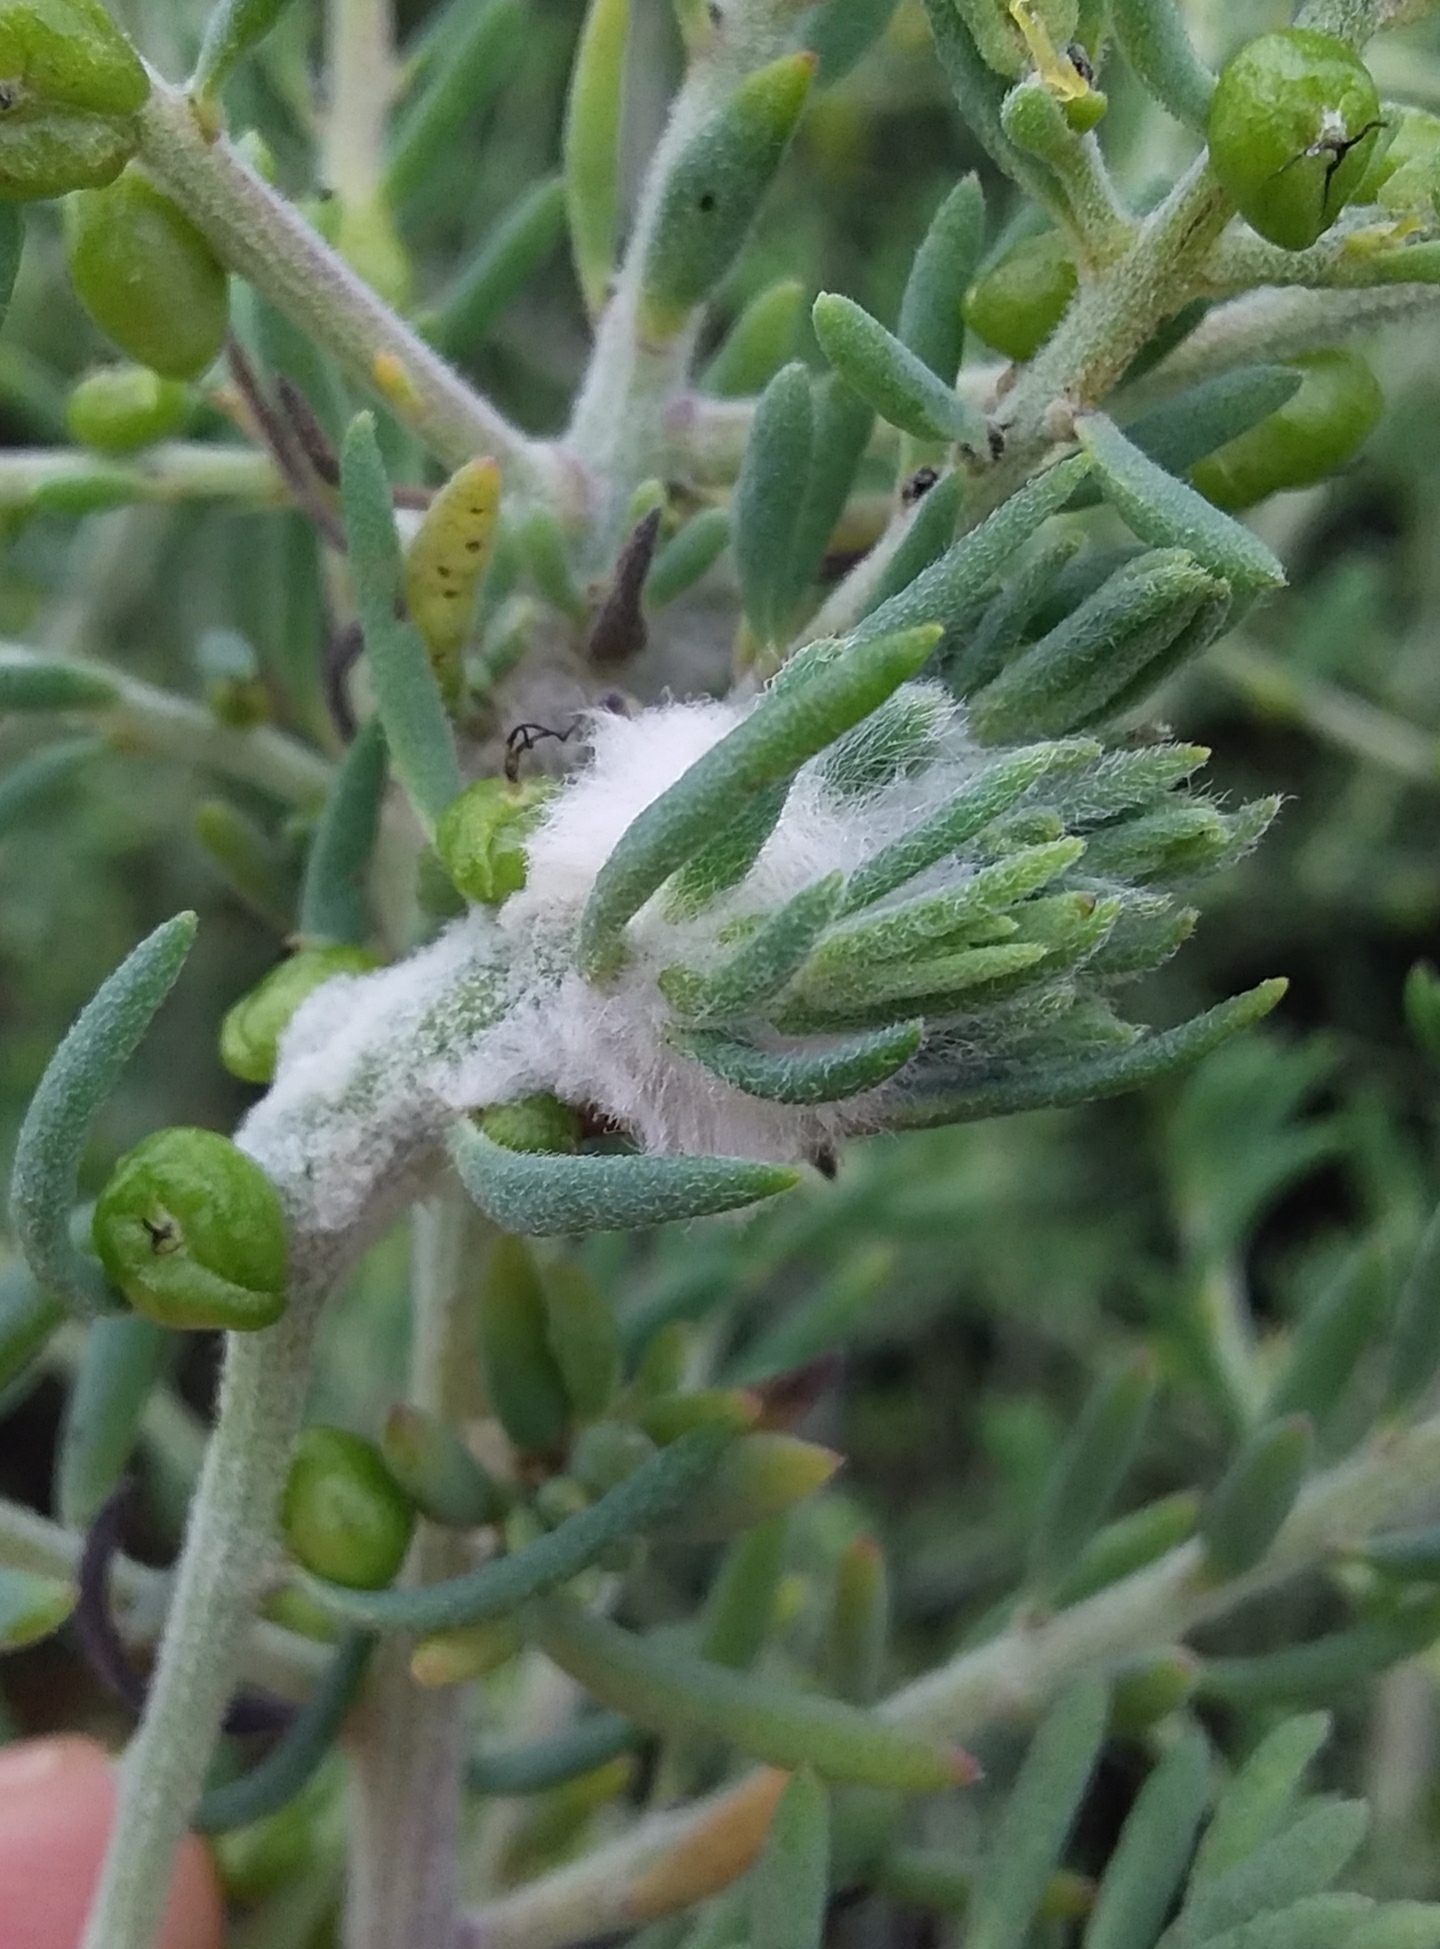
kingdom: Animalia
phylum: Arthropoda
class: Insecta
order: Diptera
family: Cecidomyiidae
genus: Asphondylia
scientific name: Asphondylia tonsura
